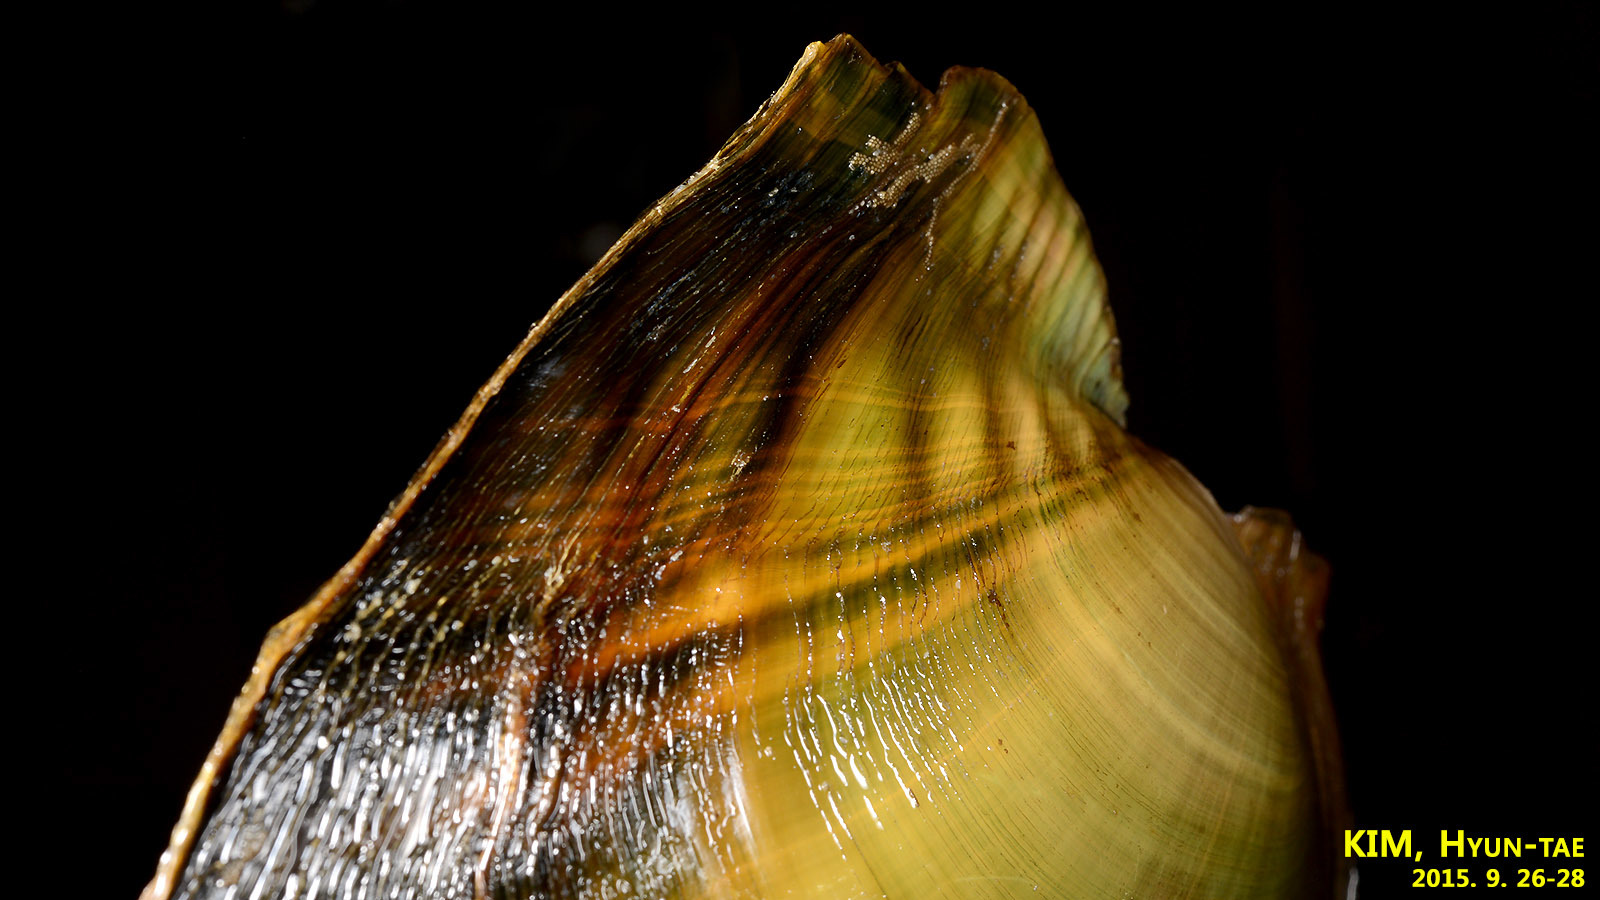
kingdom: Animalia
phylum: Mollusca
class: Bivalvia
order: Unionida
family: Unionidae
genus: Cristaria
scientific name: Cristaria plicata
